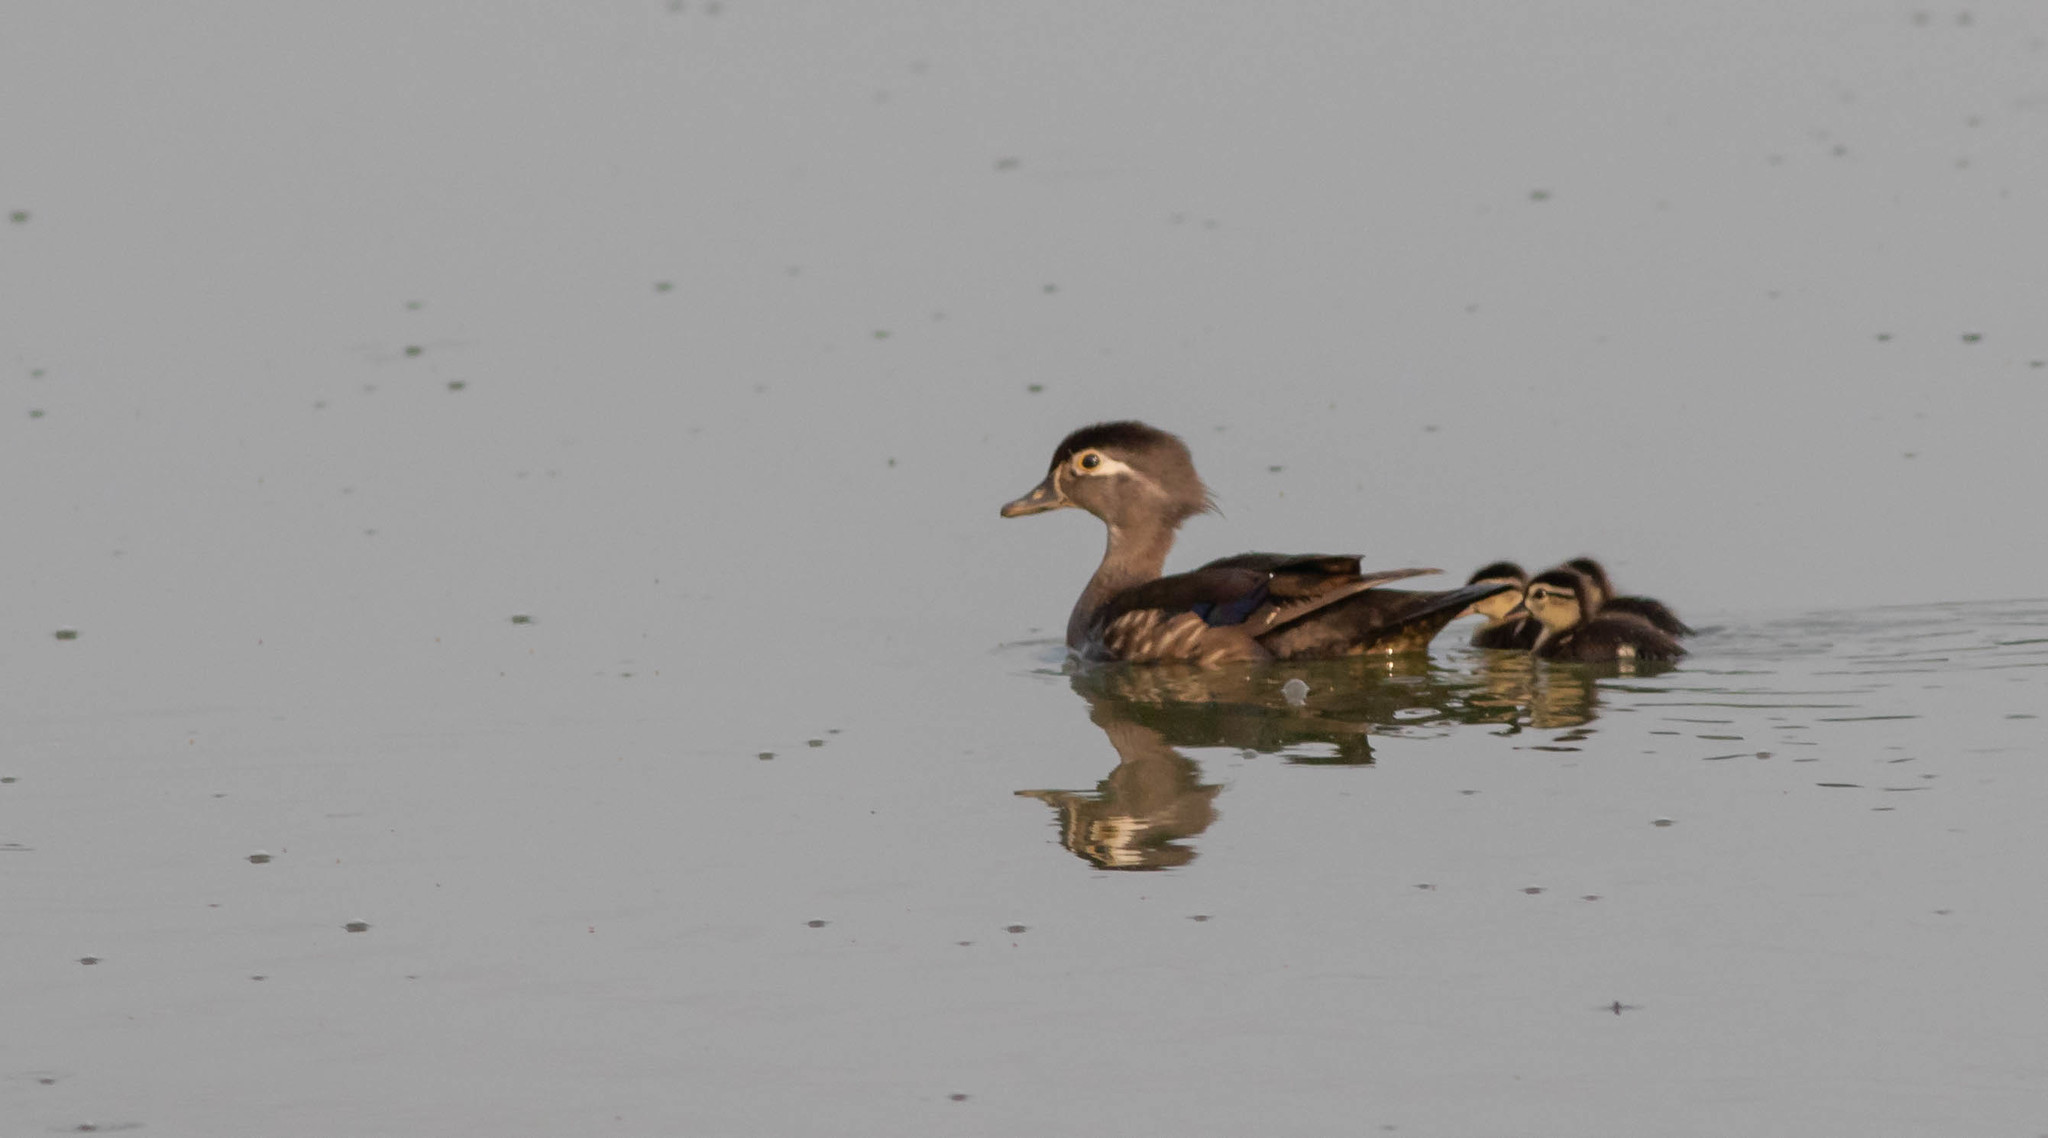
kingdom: Animalia
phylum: Chordata
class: Aves
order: Anseriformes
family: Anatidae
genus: Aix
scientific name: Aix sponsa
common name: Wood duck
